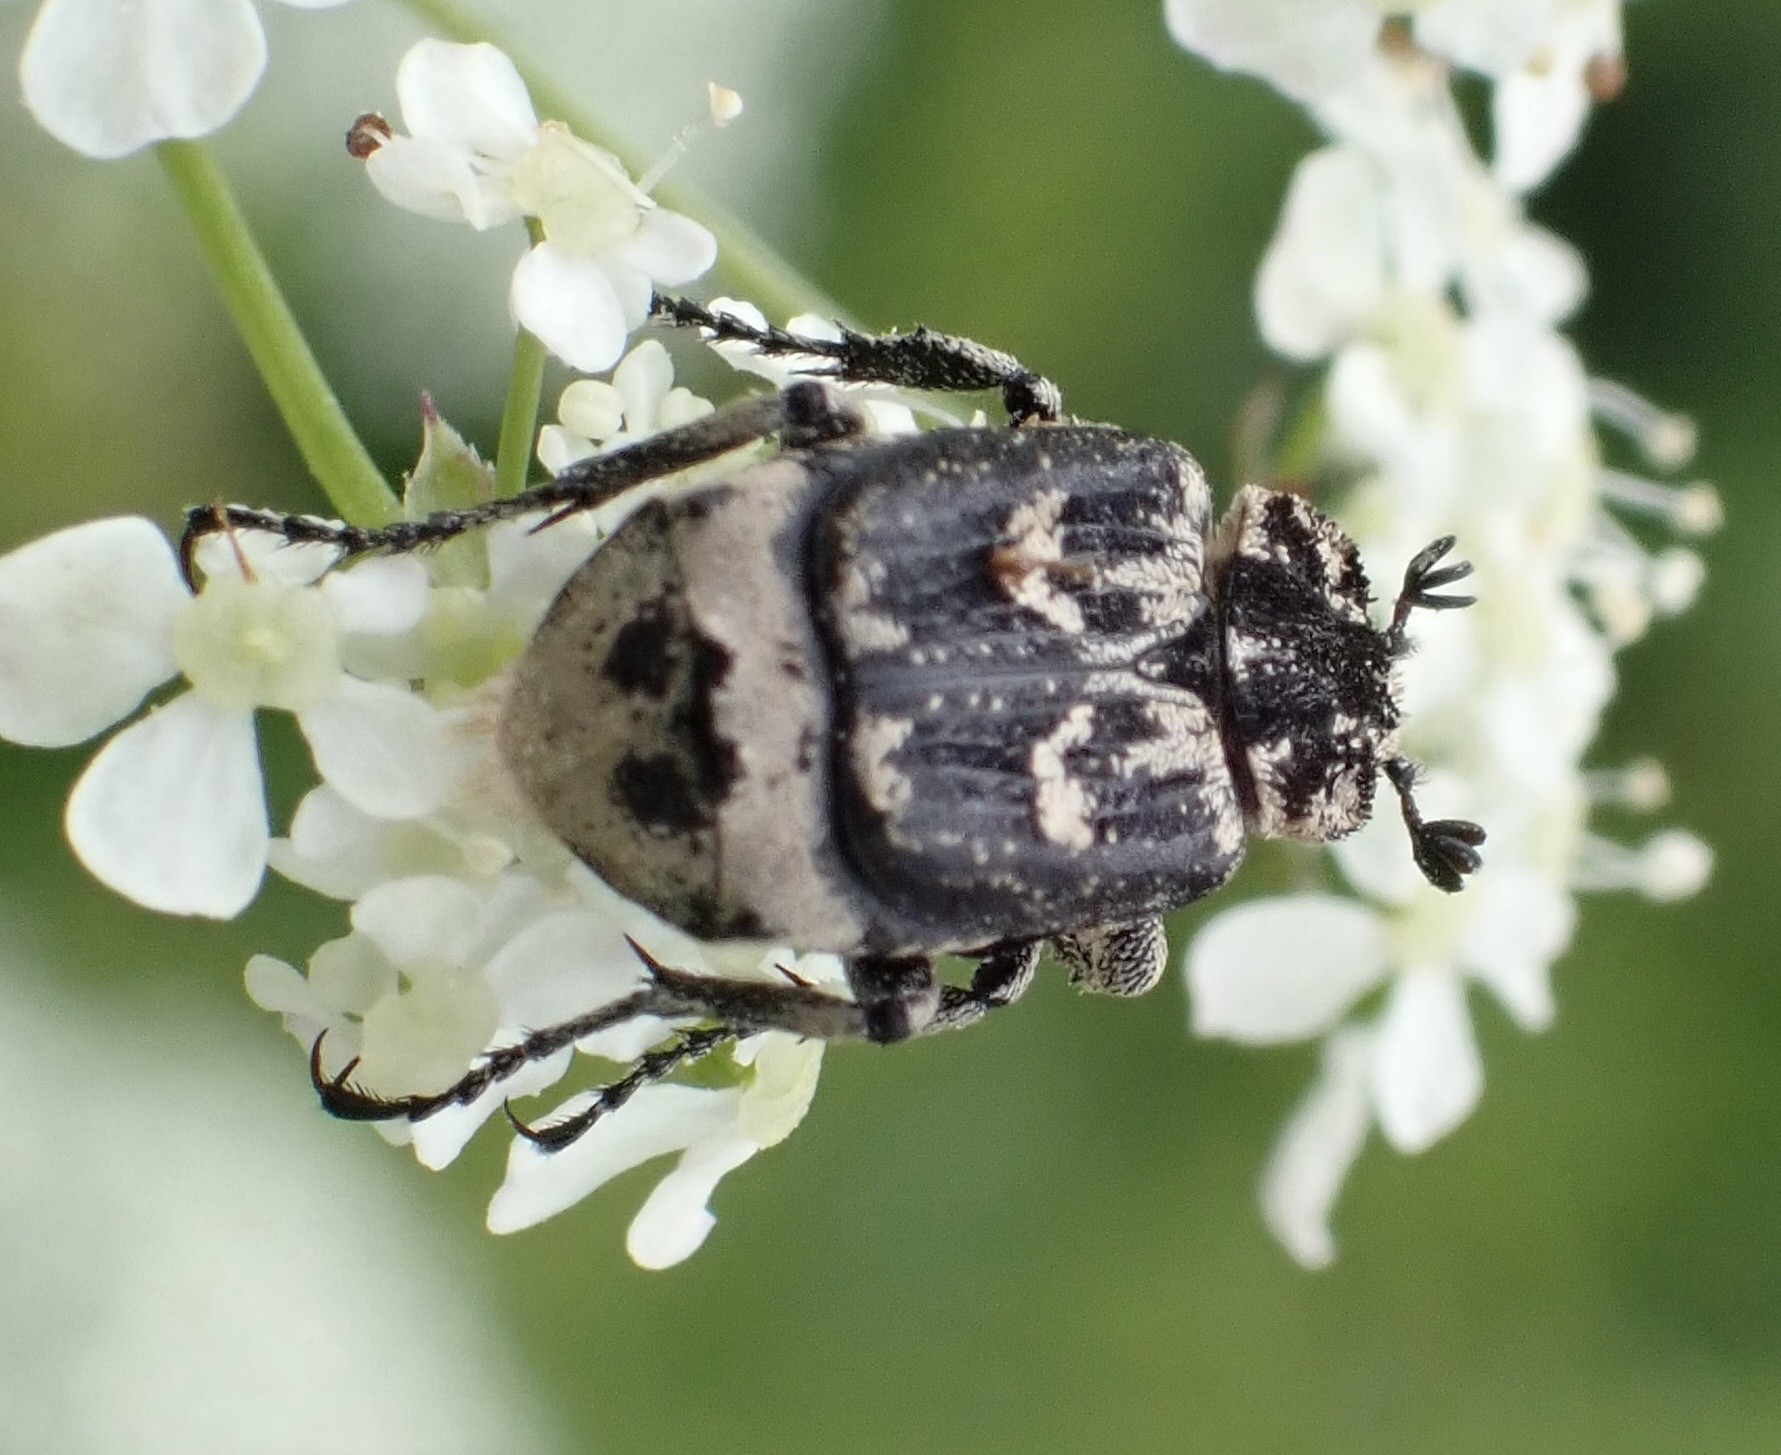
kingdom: Animalia
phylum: Arthropoda
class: Insecta
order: Coleoptera
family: Scarabaeidae
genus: Valgus
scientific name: Valgus hemipterus
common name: Bug flower chafer
